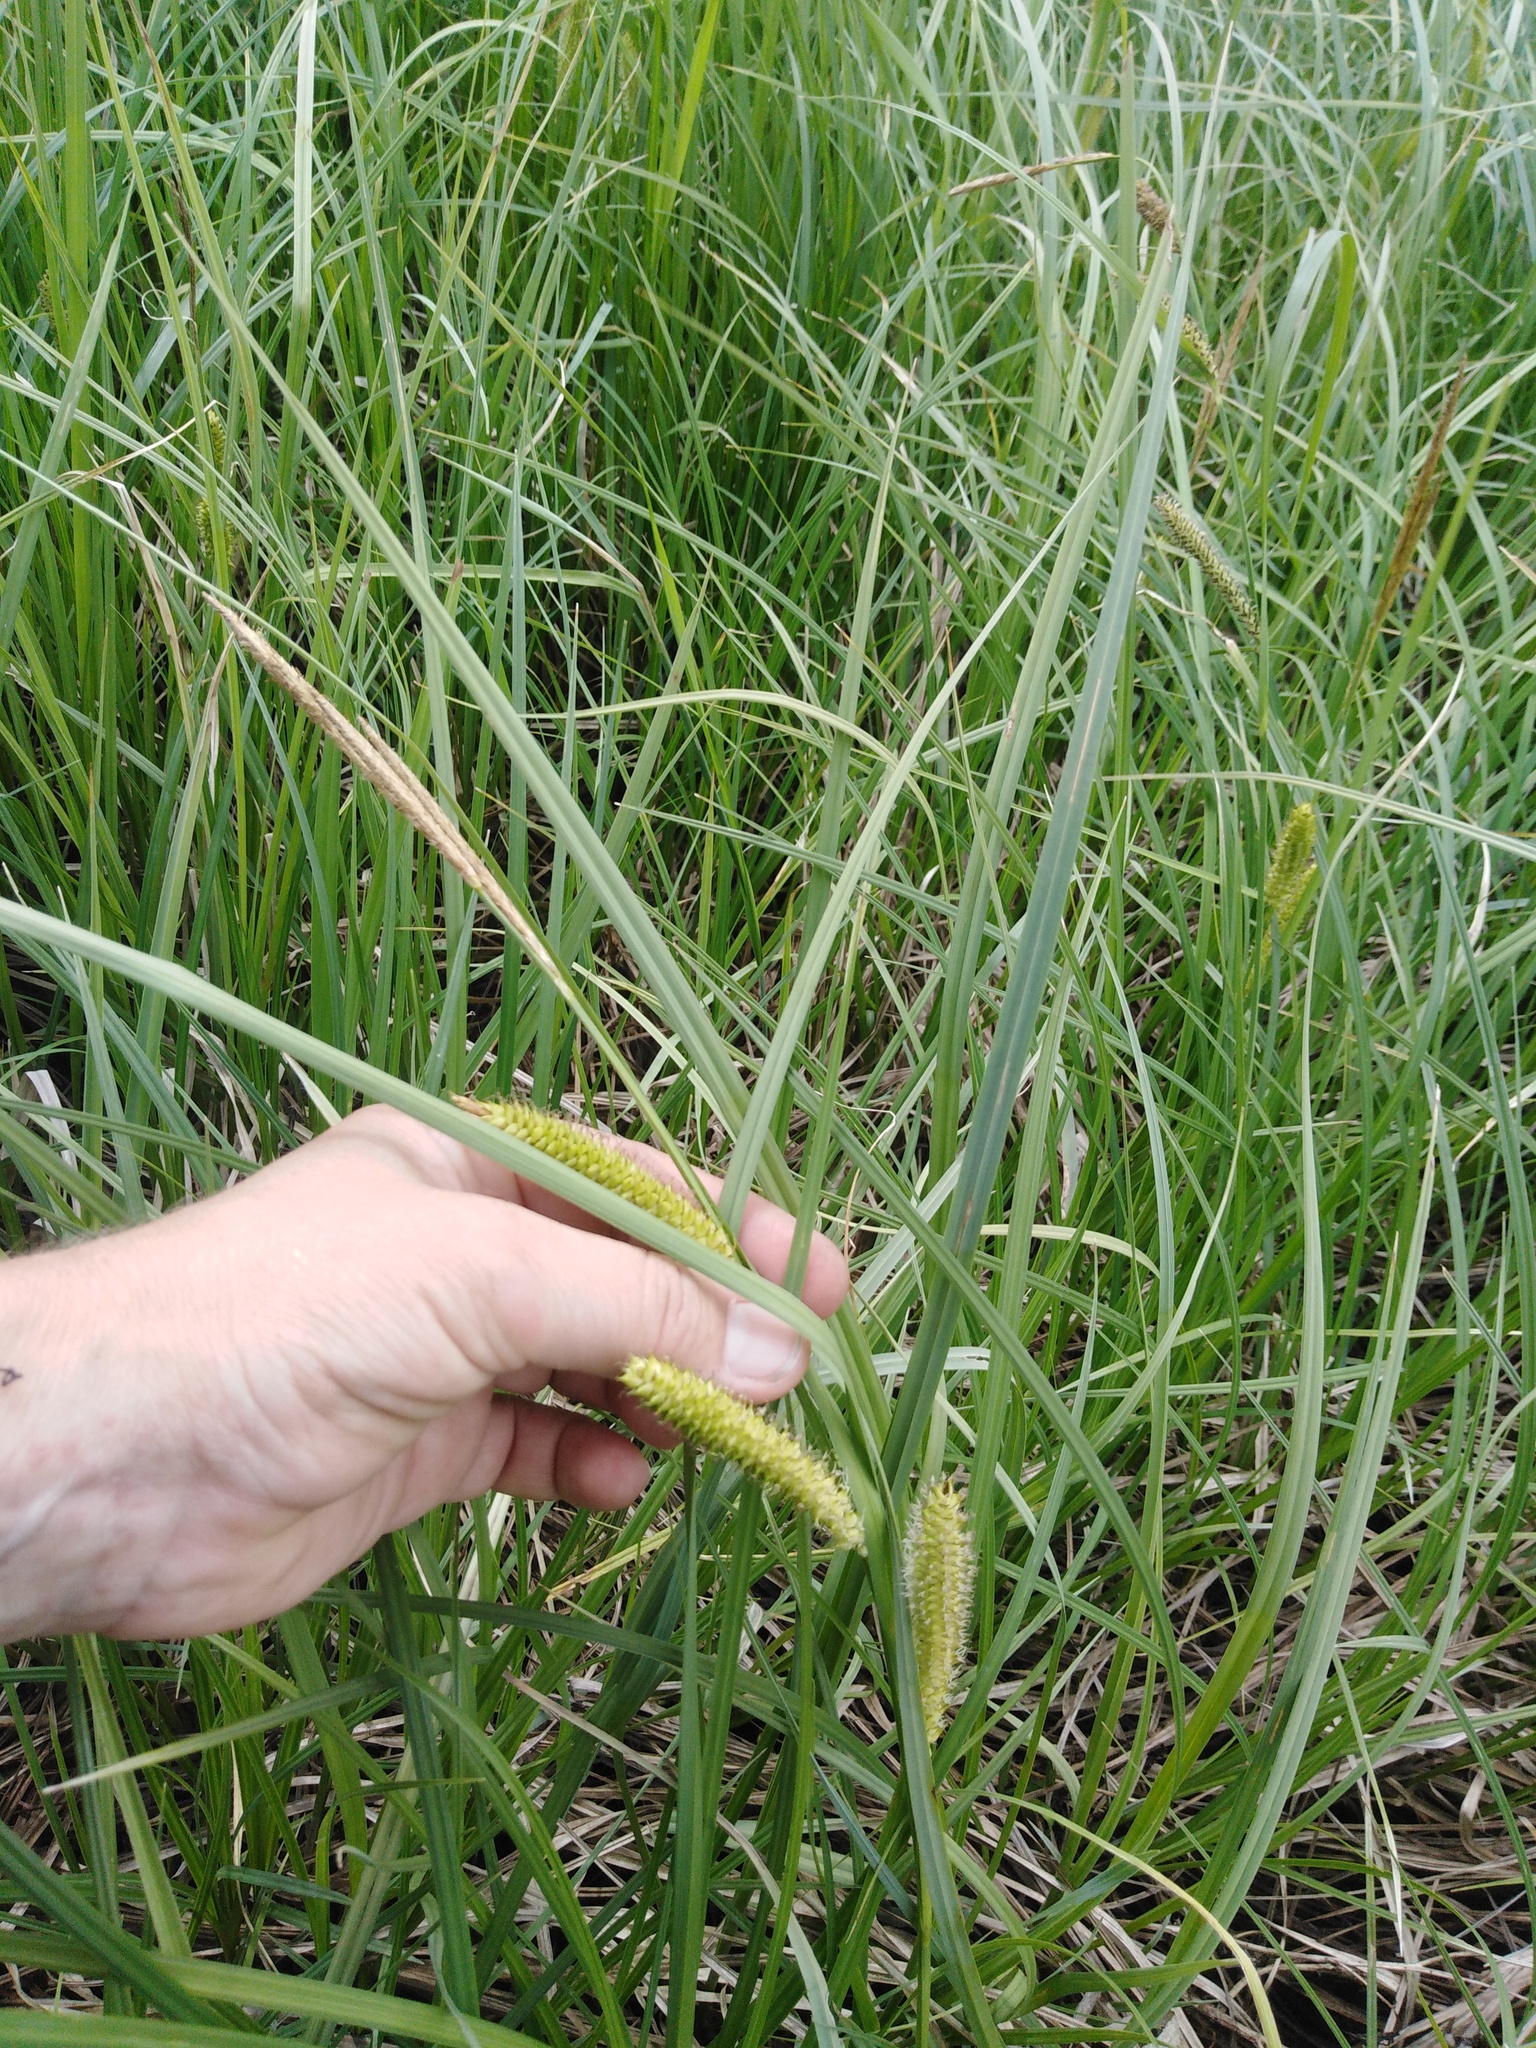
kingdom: Plantae
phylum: Tracheophyta
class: Liliopsida
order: Poales
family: Cyperaceae
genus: Carex
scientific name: Carex rostrata
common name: Bottle sedge
